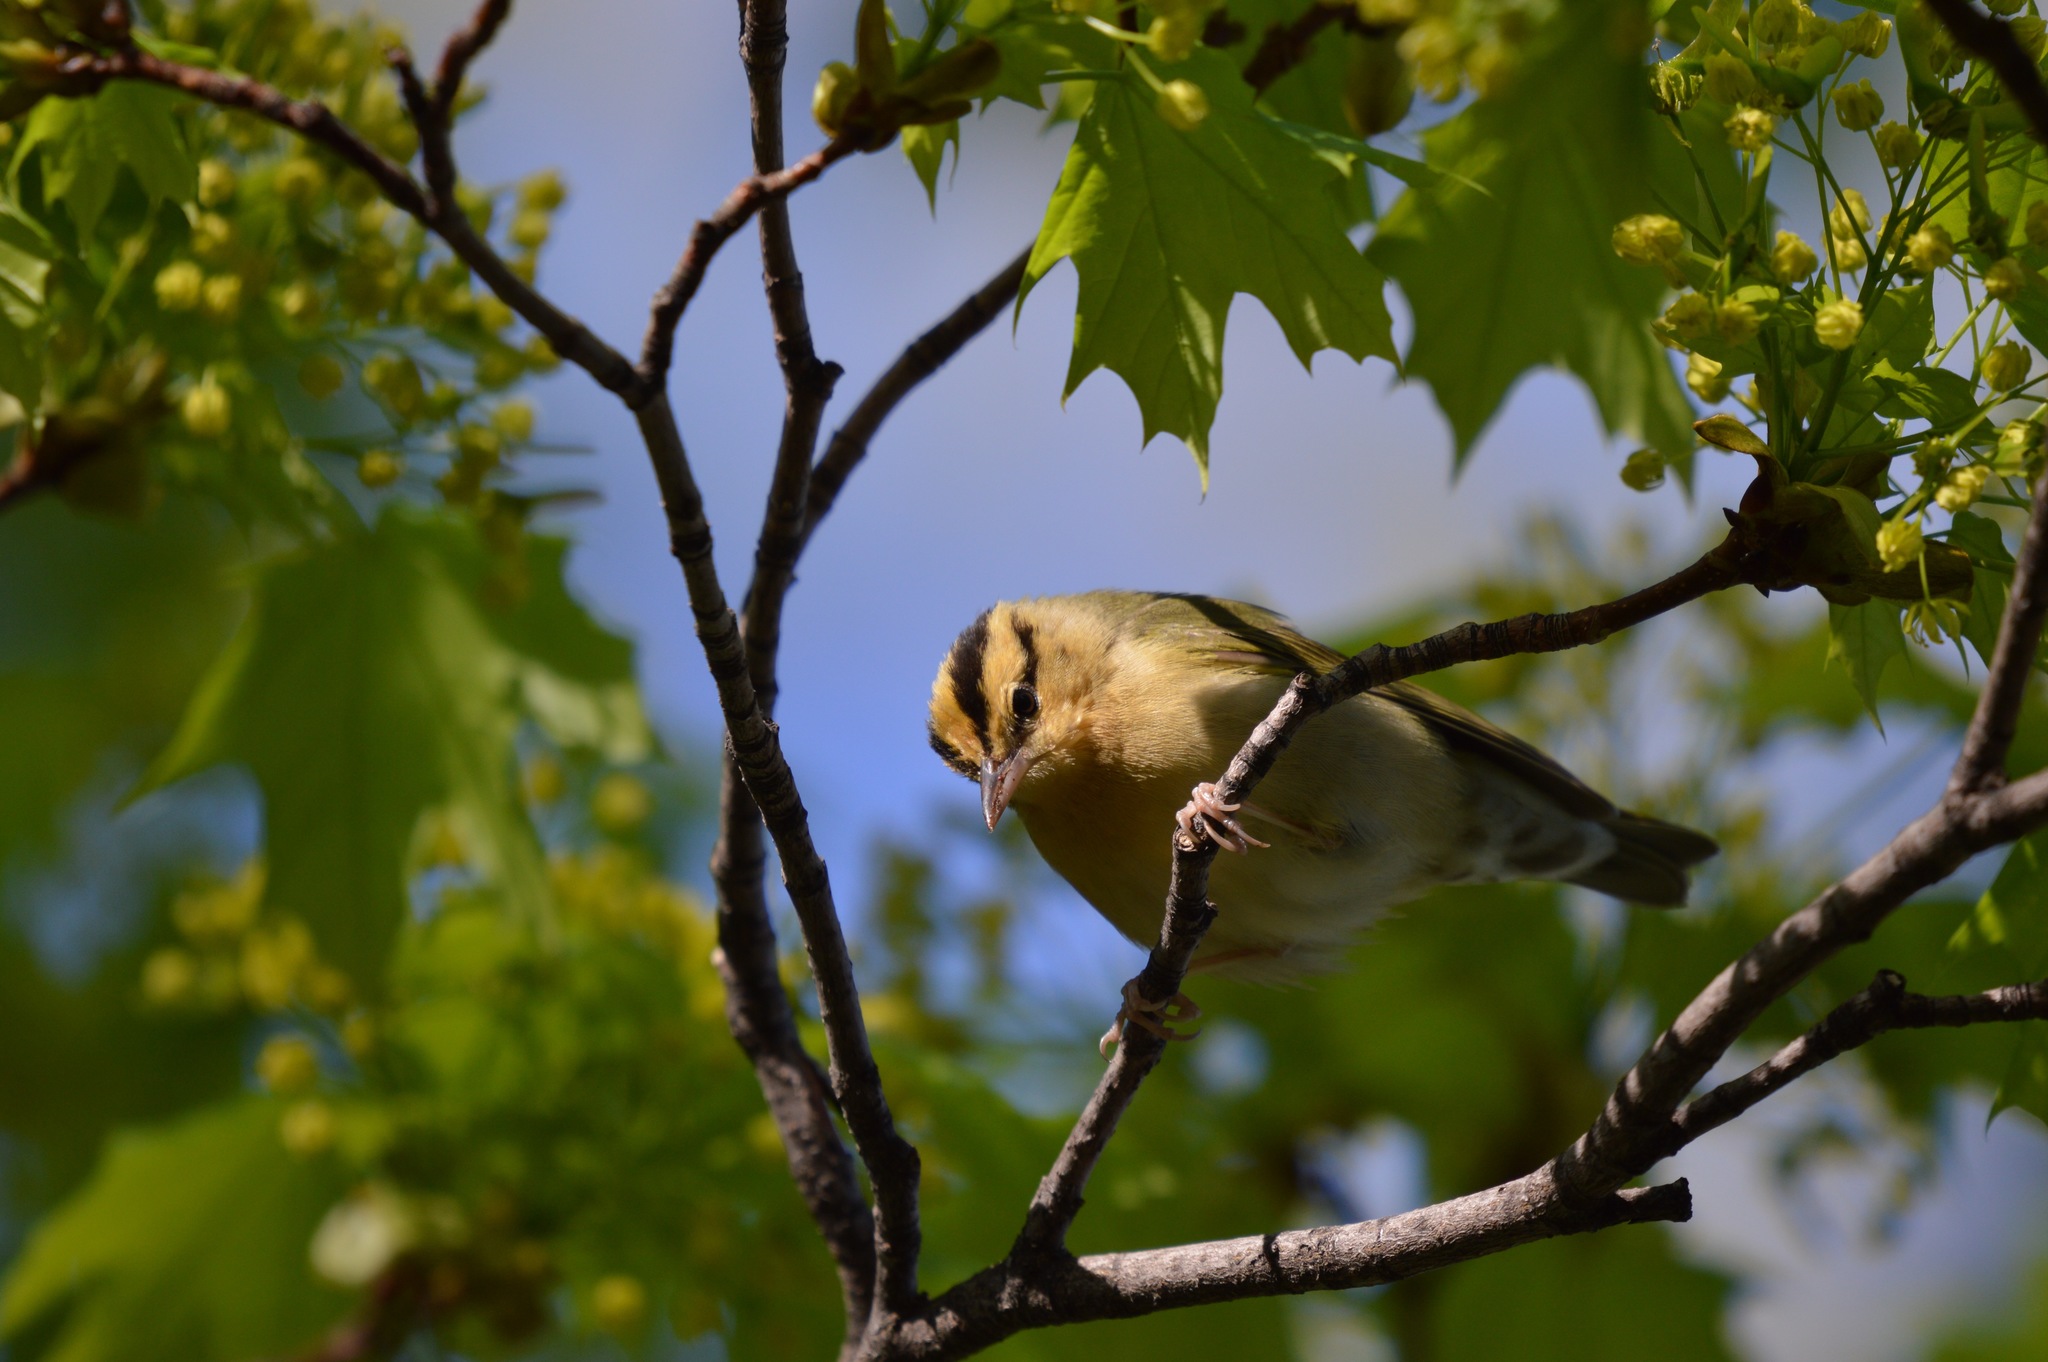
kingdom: Animalia
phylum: Chordata
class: Aves
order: Passeriformes
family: Parulidae
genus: Helmitheros
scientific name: Helmitheros vermivorum
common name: Worm-eating warbler
